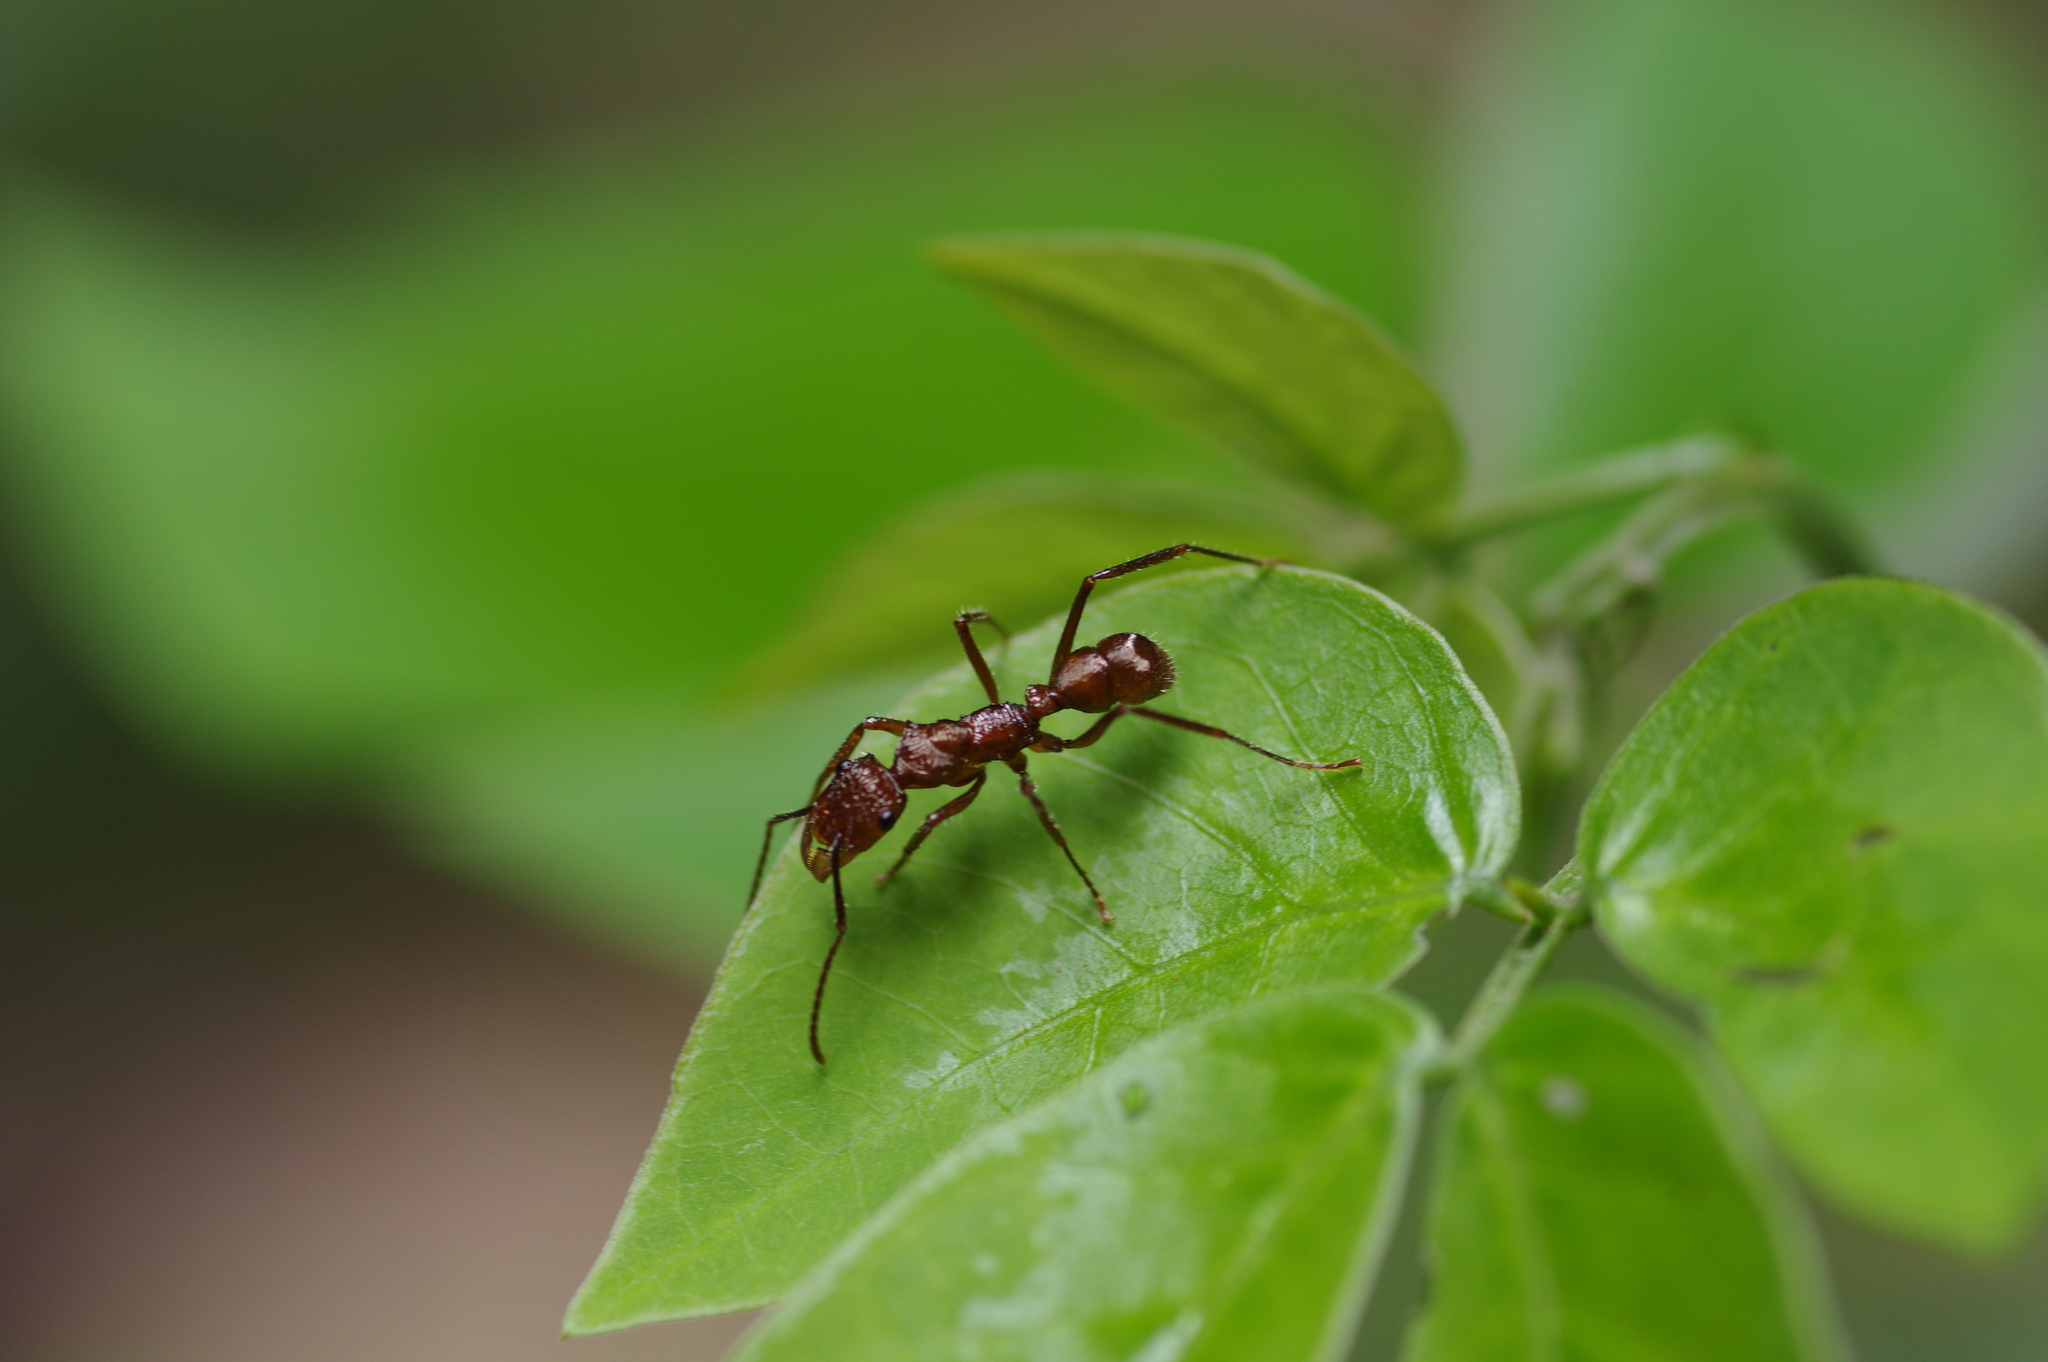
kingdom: Animalia
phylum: Arthropoda
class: Insecta
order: Hymenoptera
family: Formicidae
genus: Ectatomma
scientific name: Ectatomma tuberculatum
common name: Ant
